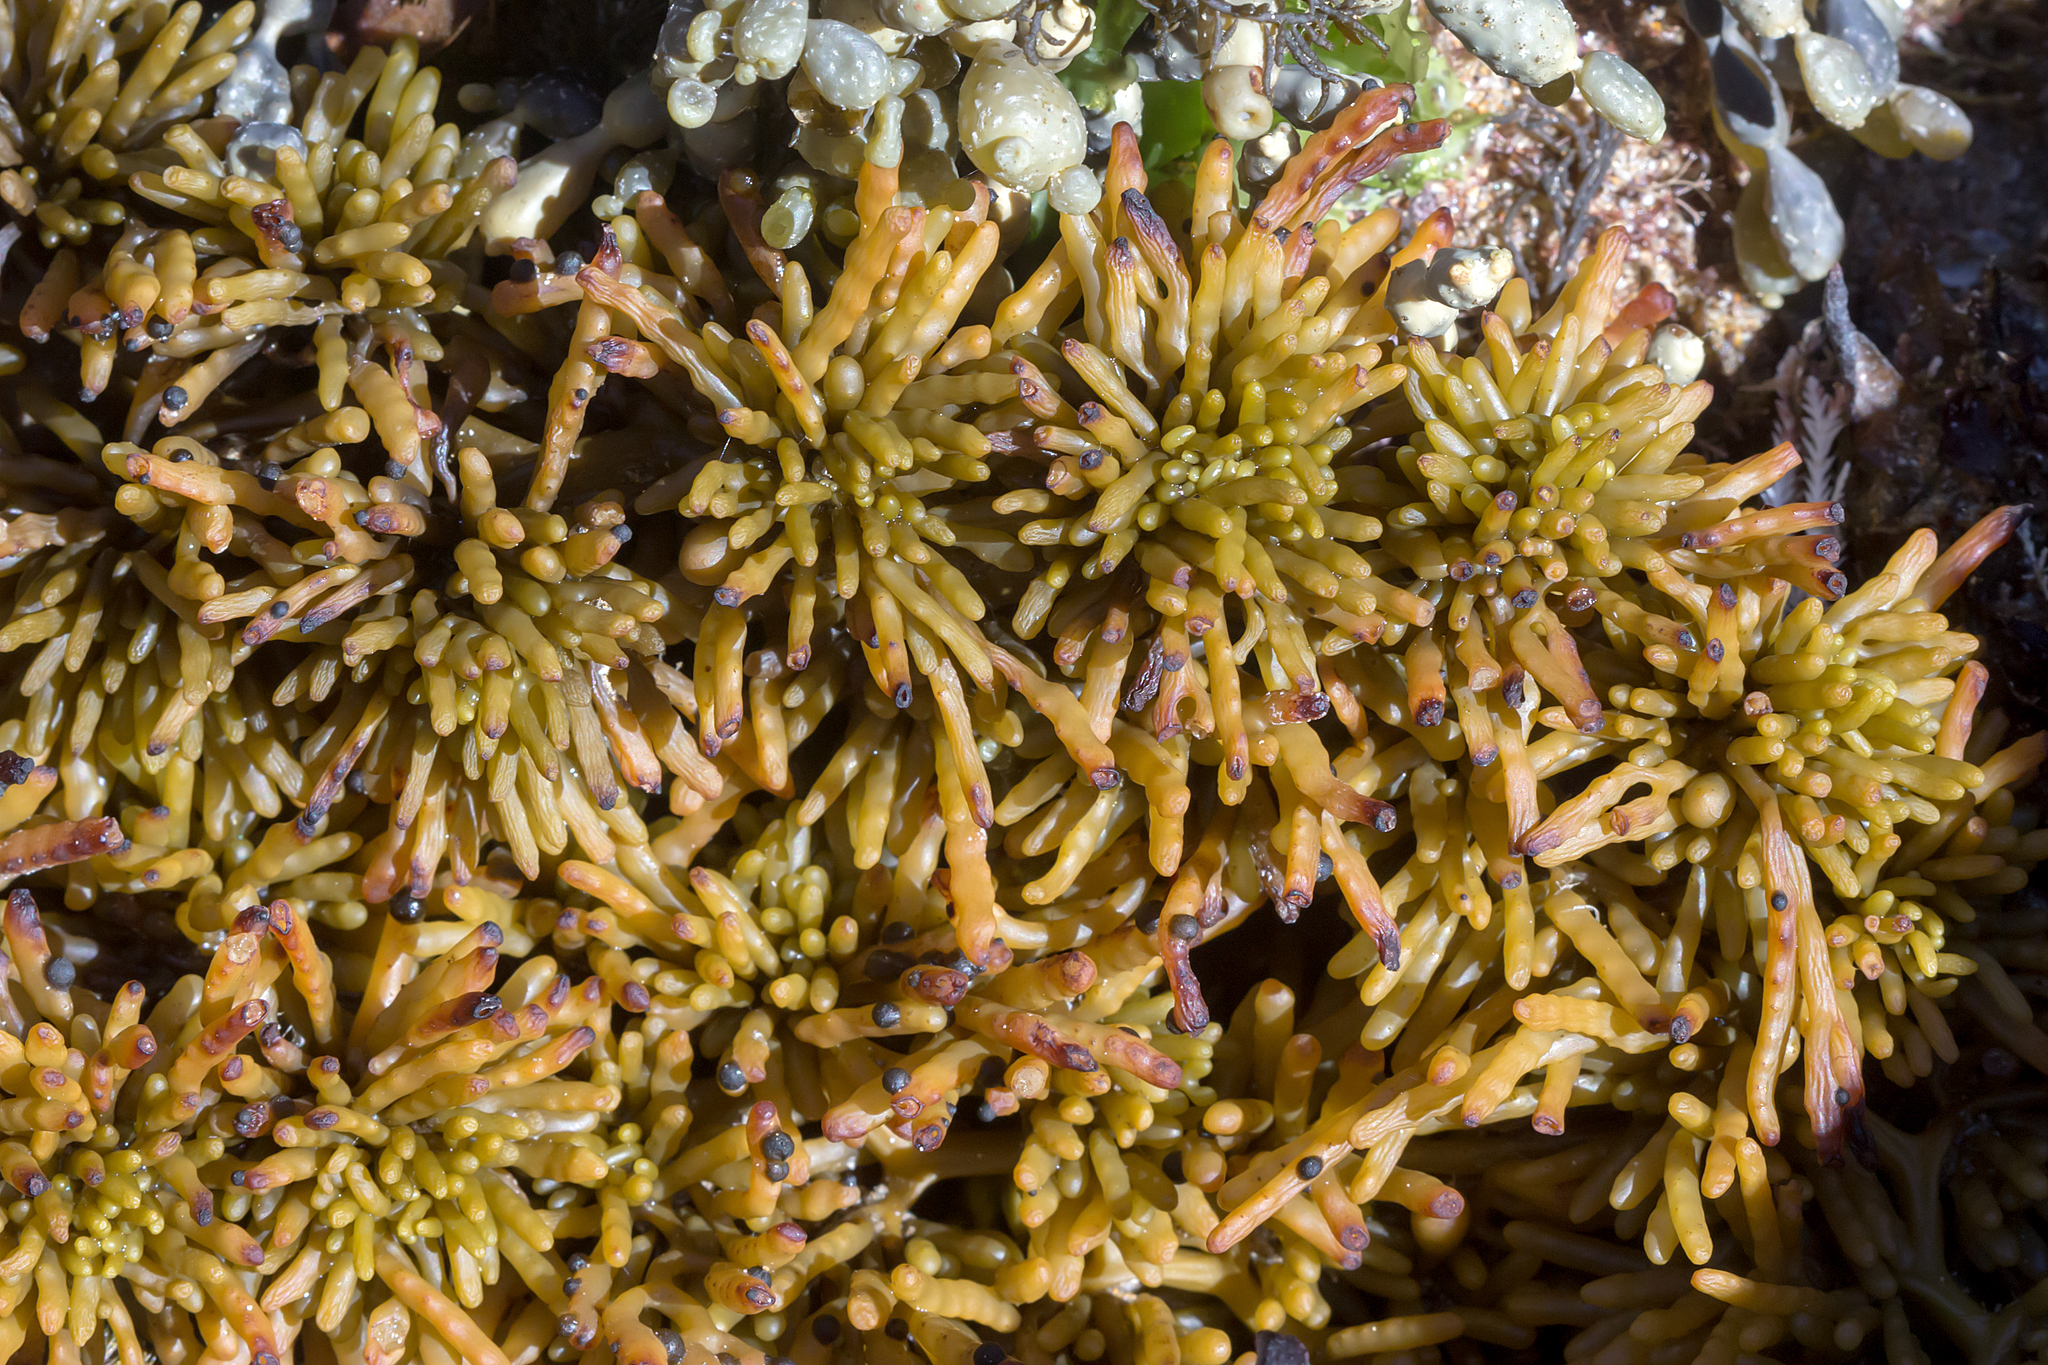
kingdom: Chromista
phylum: Ochrophyta
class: Phaeophyceae
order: Fucales
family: Sargassaceae
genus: Cystophora
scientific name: Cystophora torulosa
